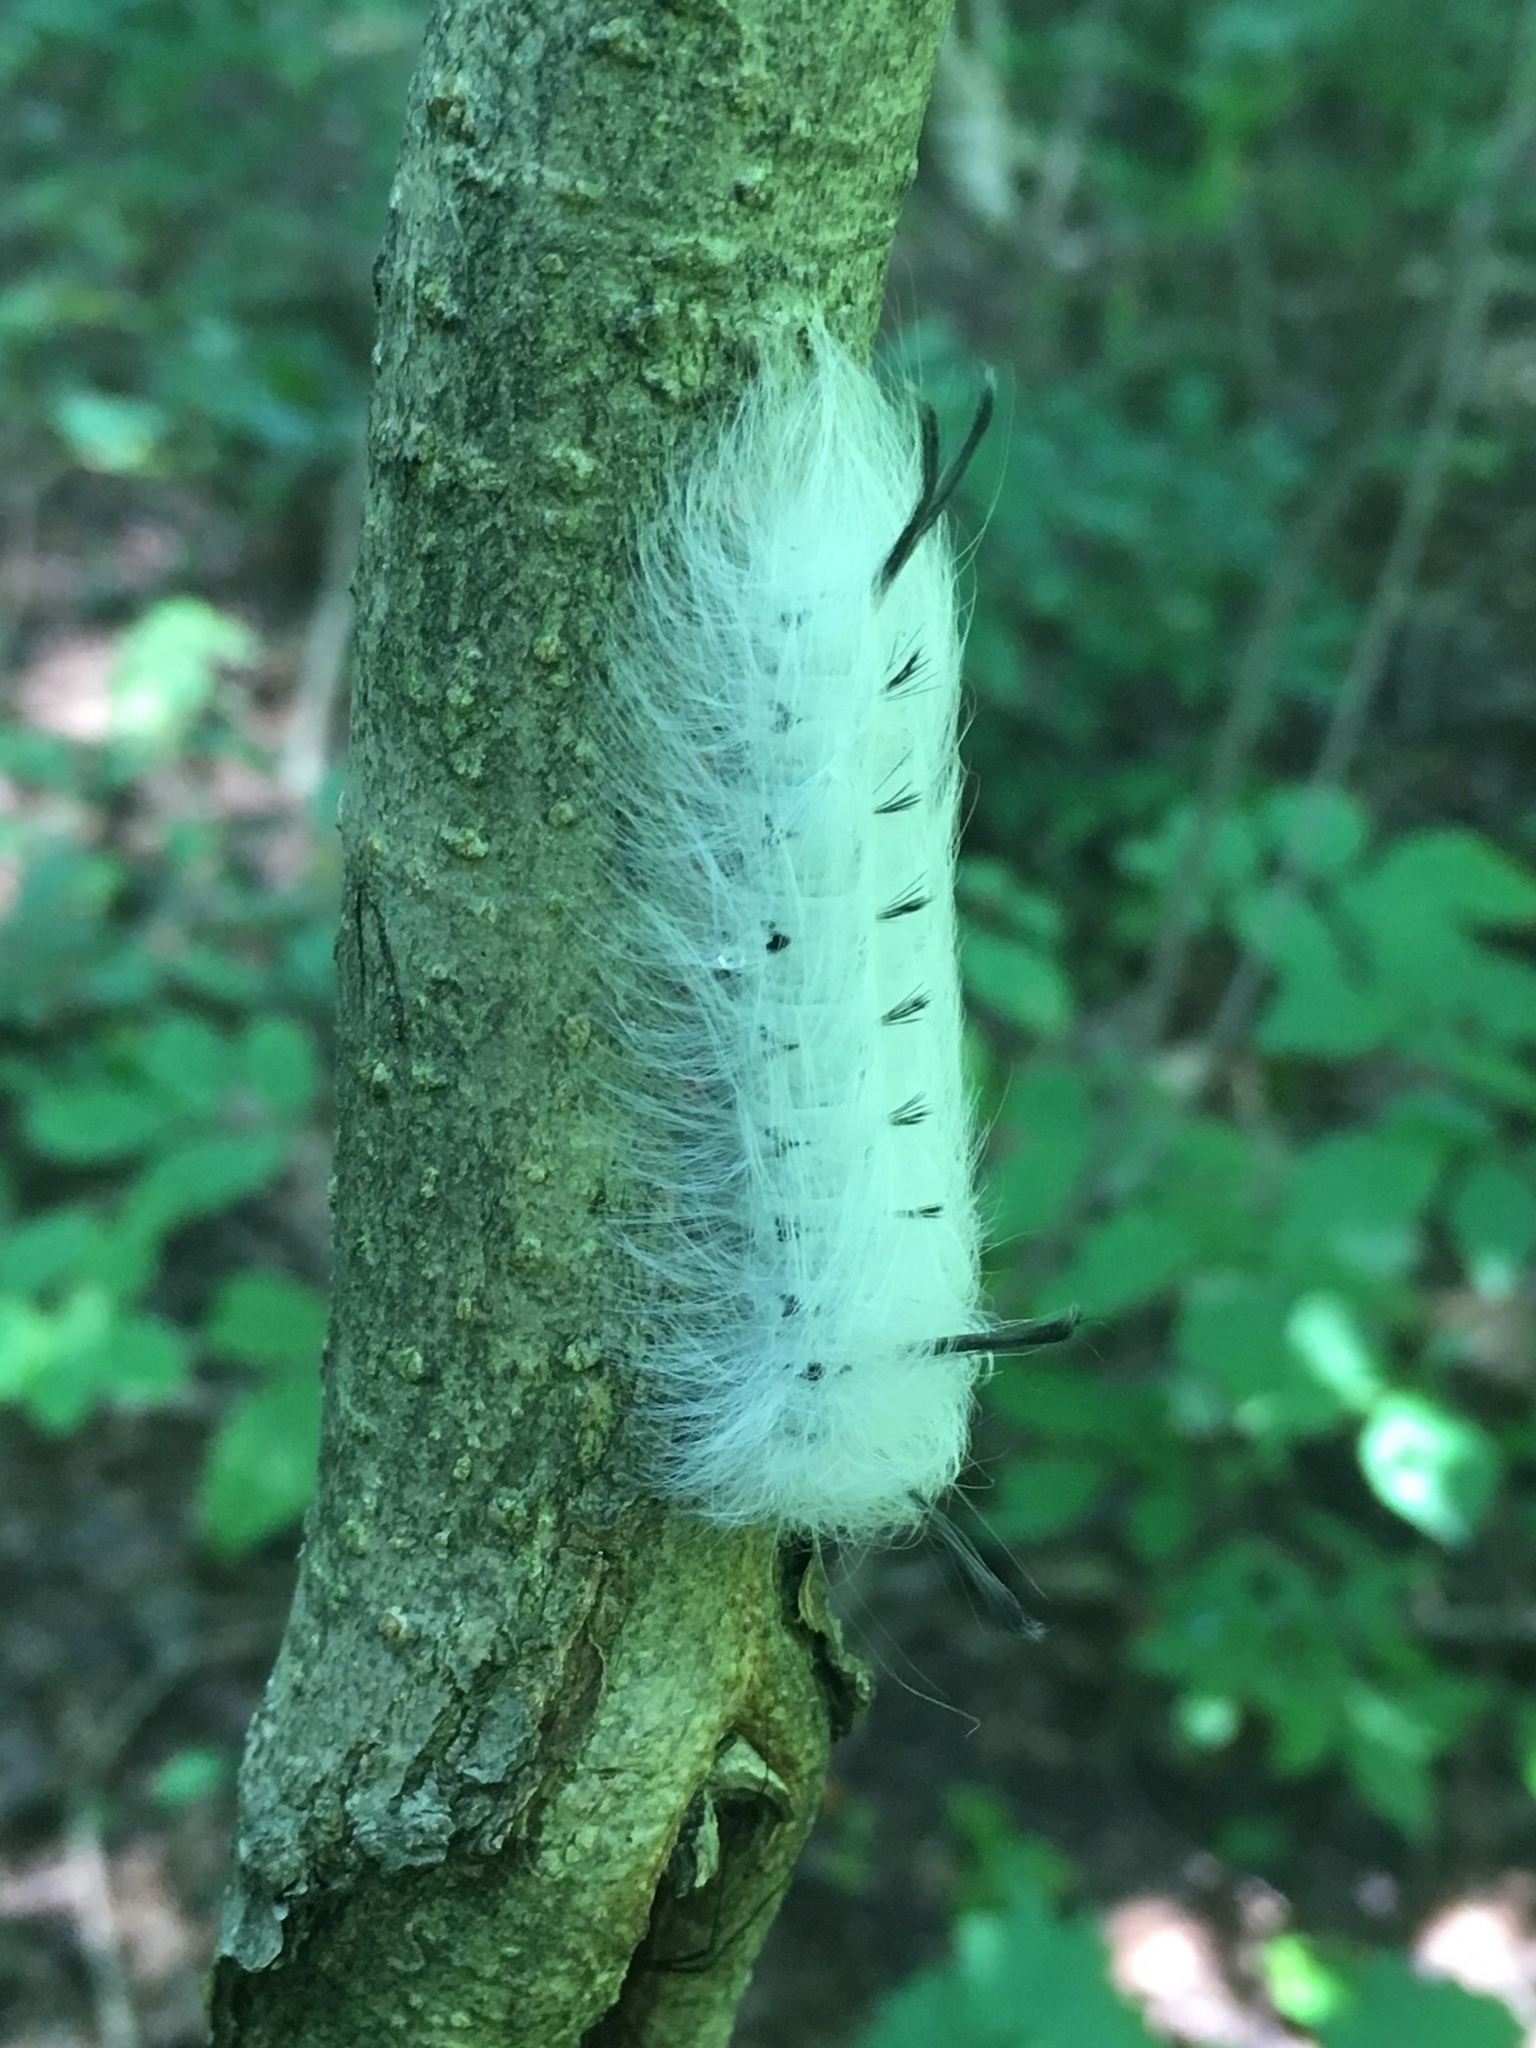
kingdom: Animalia
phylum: Arthropoda
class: Insecta
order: Lepidoptera
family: Apatelodidae
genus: Hygrochroa
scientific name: Hygrochroa Apatelodes torrefacta
